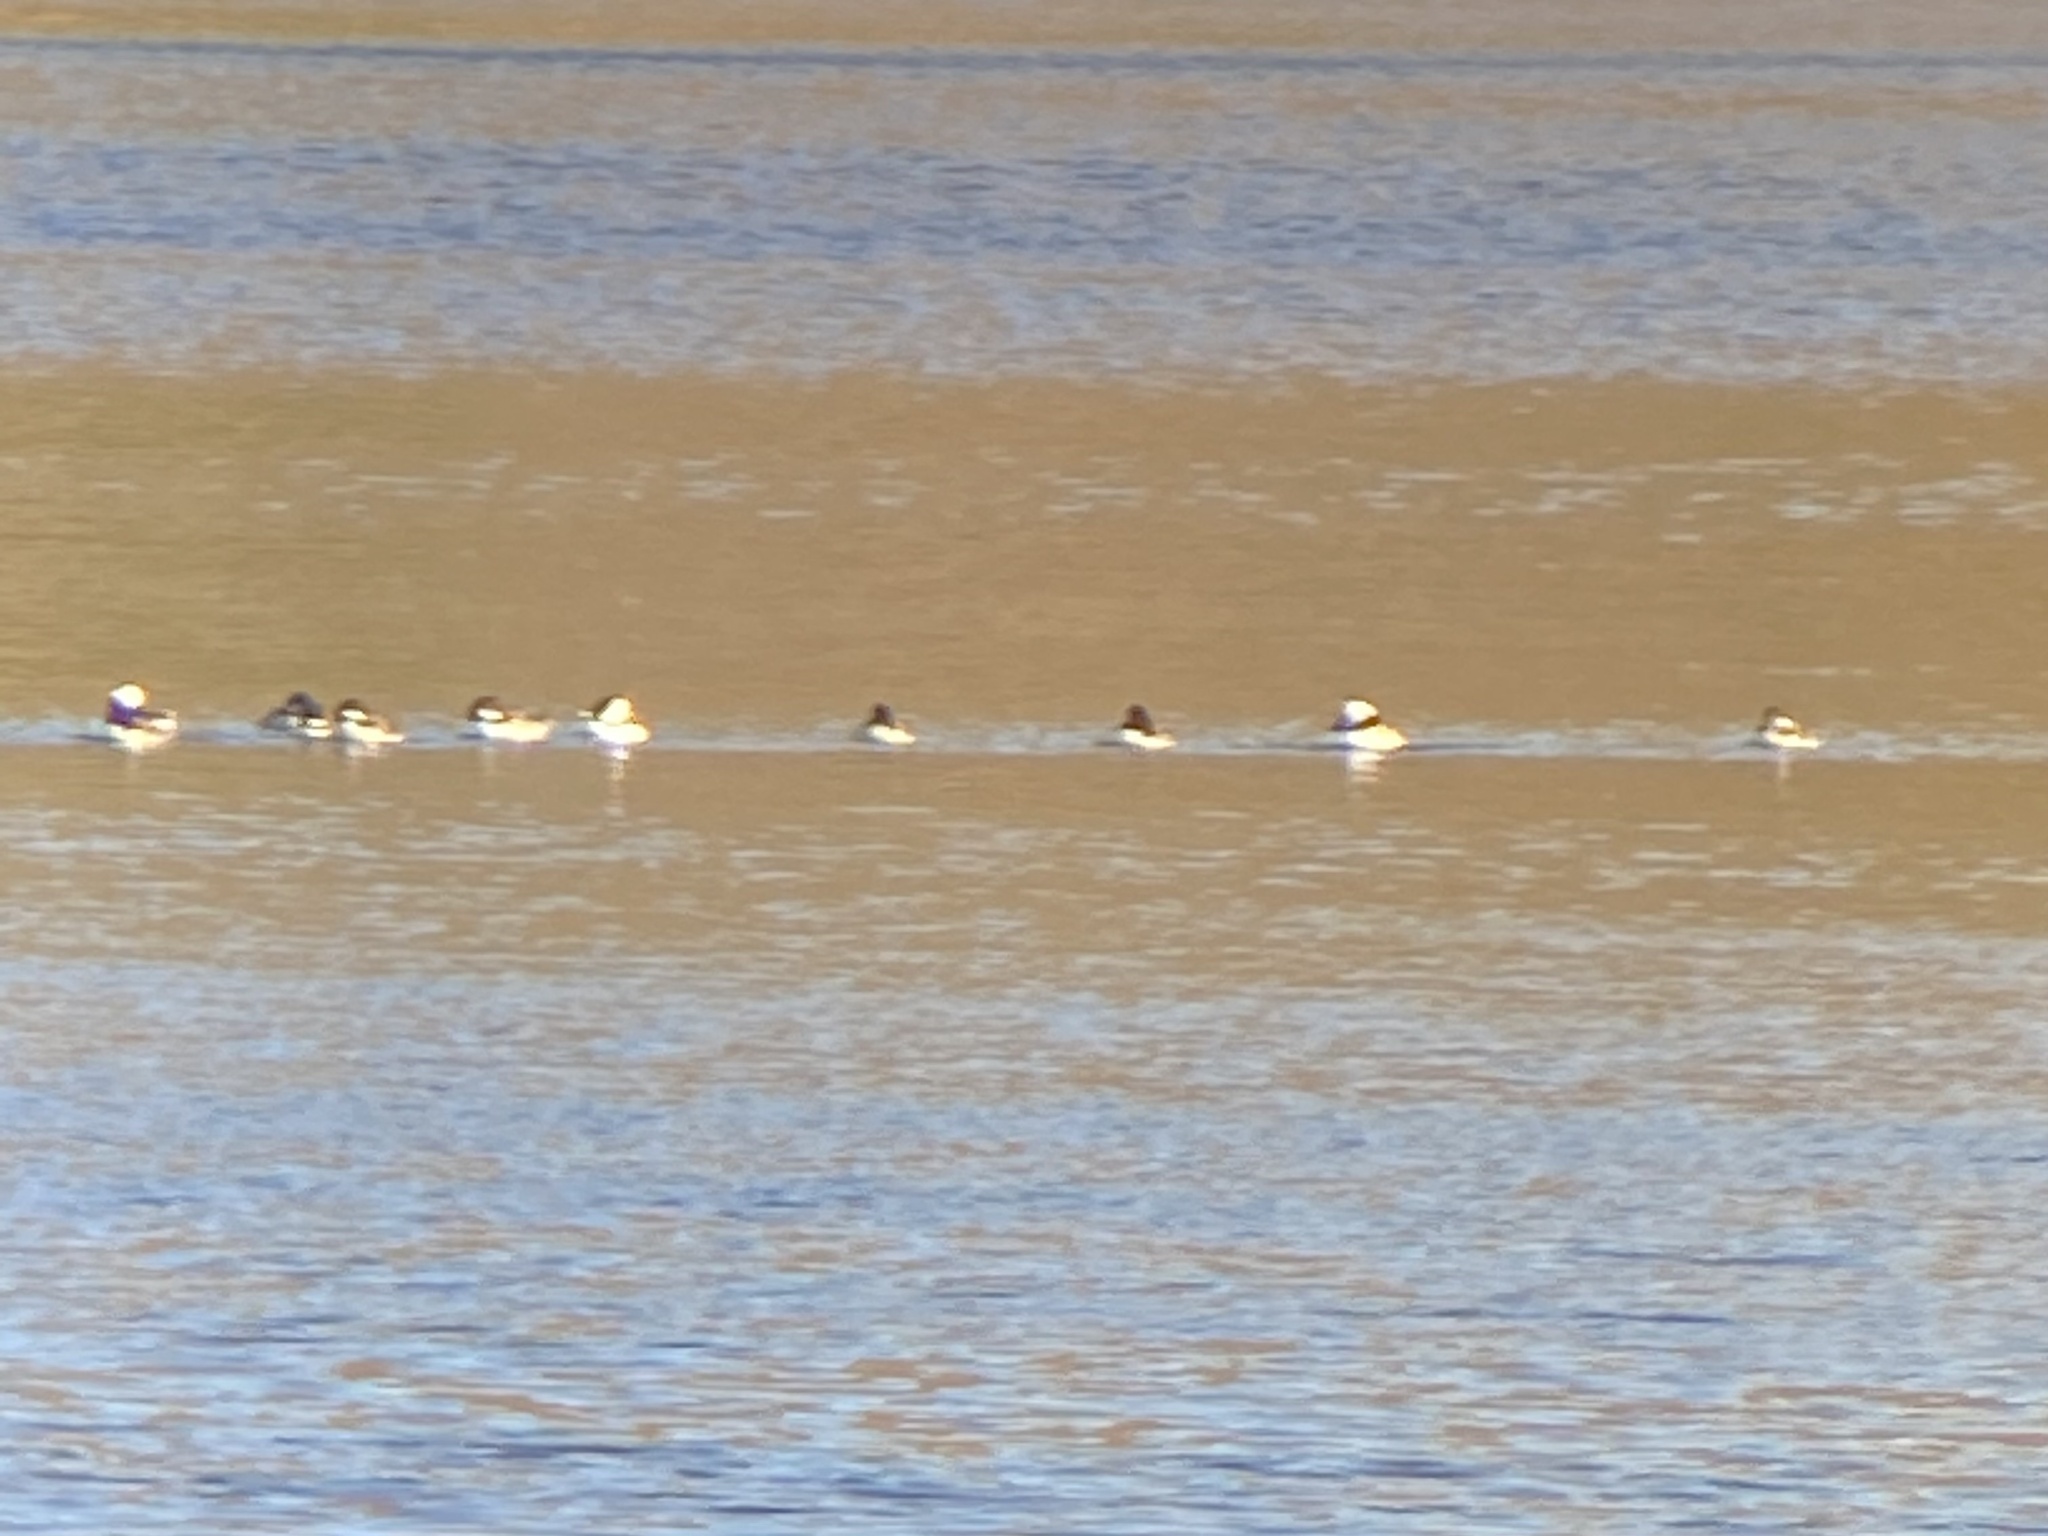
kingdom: Animalia
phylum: Chordata
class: Aves
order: Anseriformes
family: Anatidae
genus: Bucephala
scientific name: Bucephala albeola
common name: Bufflehead
